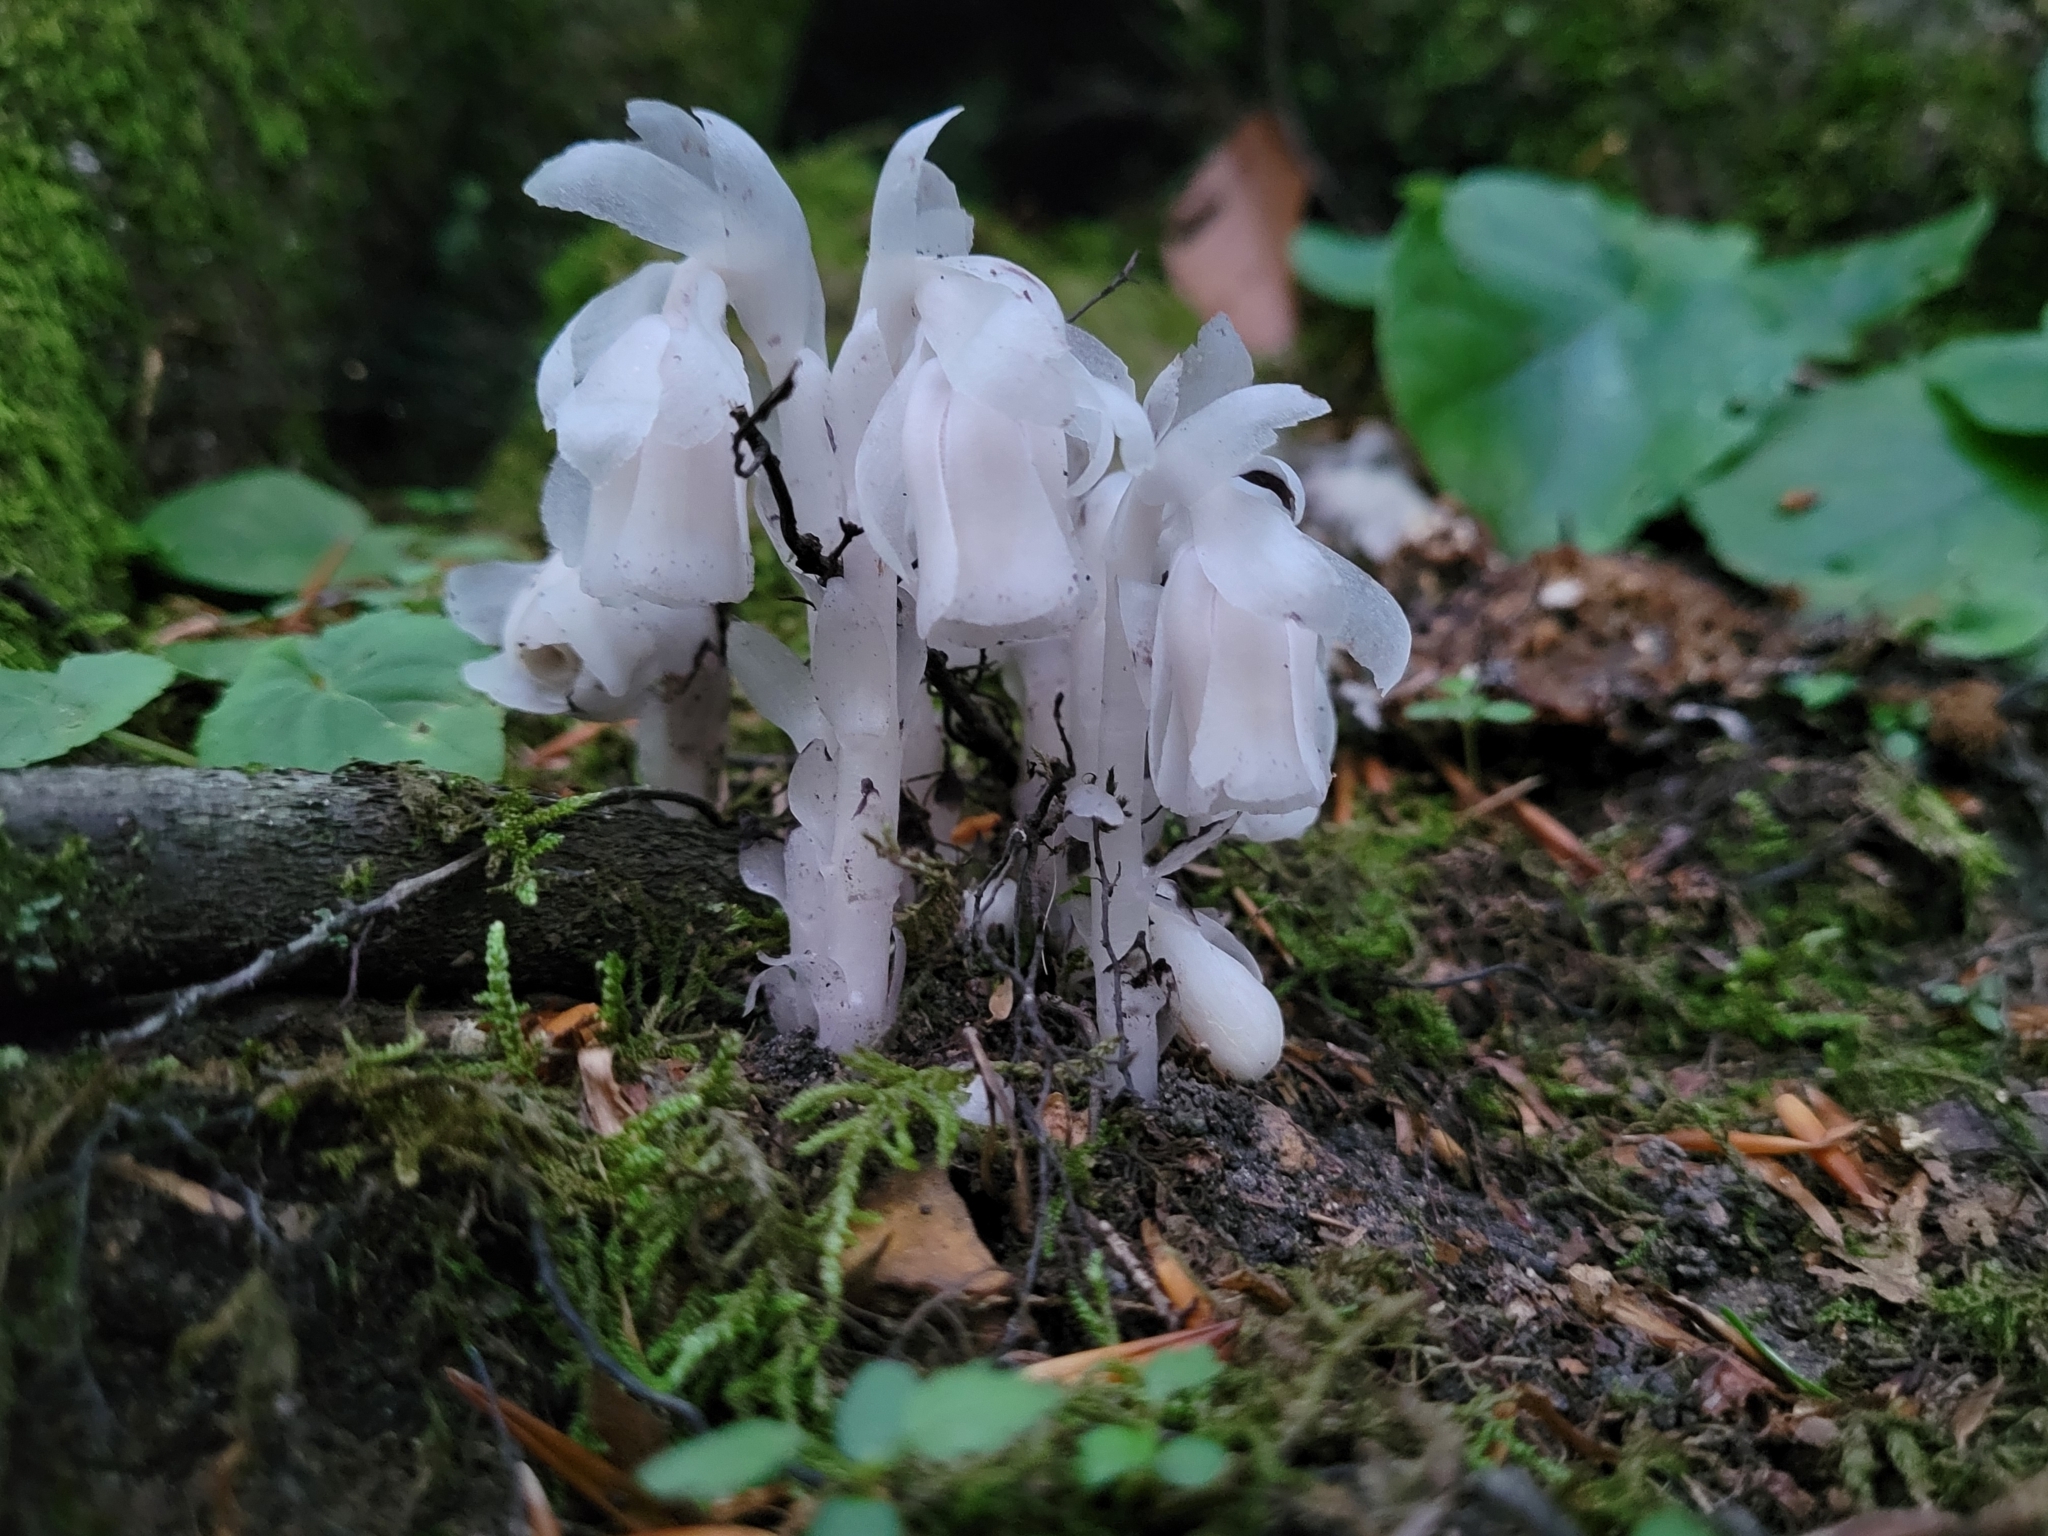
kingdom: Plantae
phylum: Tracheophyta
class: Magnoliopsida
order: Ericales
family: Ericaceae
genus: Monotropa
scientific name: Monotropa uniflora
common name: Convulsion root
